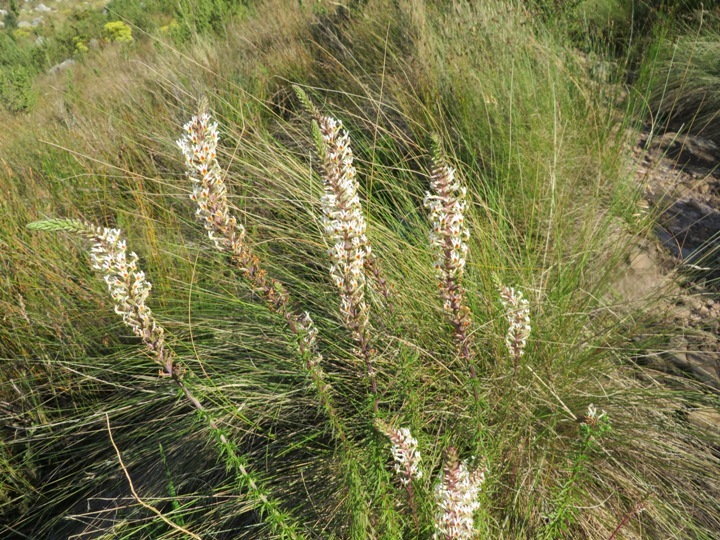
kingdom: Plantae
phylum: Tracheophyta
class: Magnoliopsida
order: Lamiales
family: Scrophulariaceae
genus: Hebenstretia
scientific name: Hebenstretia robusta
